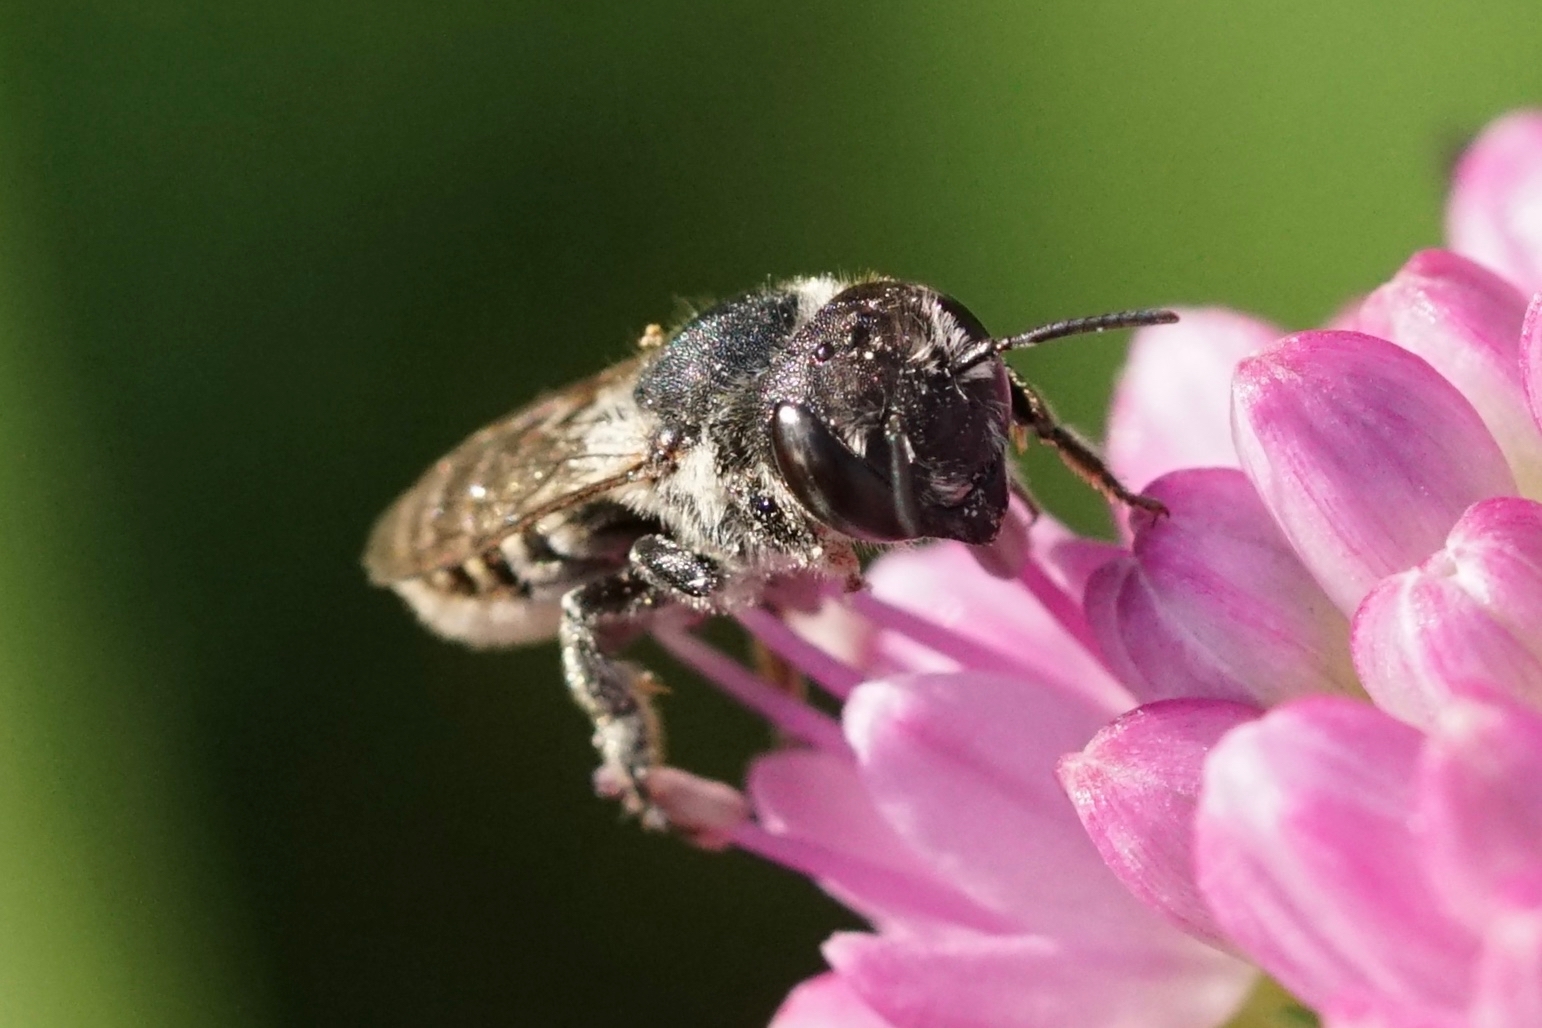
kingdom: Animalia
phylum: Arthropoda
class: Insecta
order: Hymenoptera
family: Megachilidae
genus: Megachile
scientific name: Megachile rotundata
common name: Alfalfa leafcutting bee
